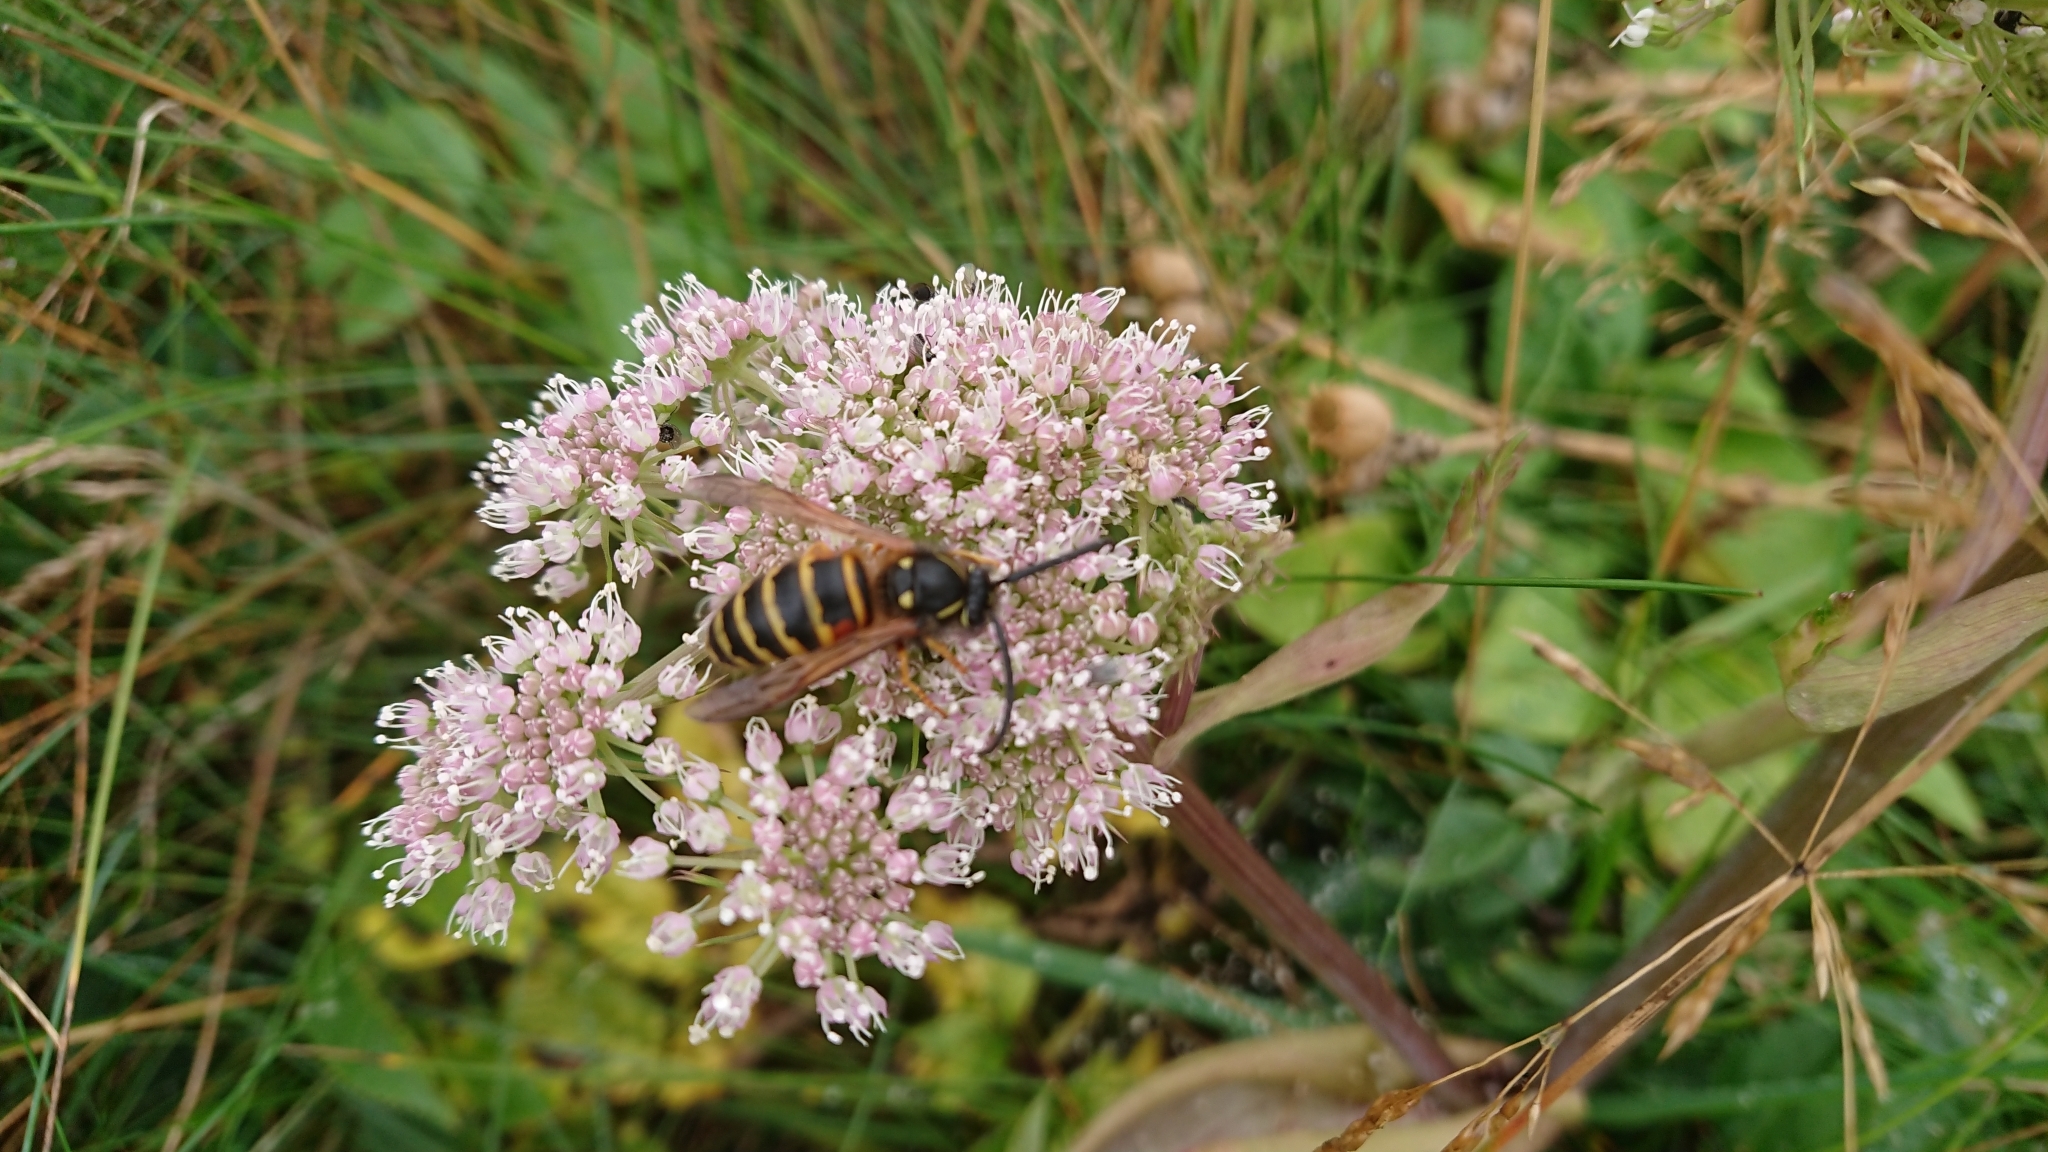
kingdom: Animalia
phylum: Arthropoda
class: Insecta
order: Hymenoptera
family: Vespidae
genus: Dolichovespula
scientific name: Dolichovespula norwegica
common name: Norwegian wasp
